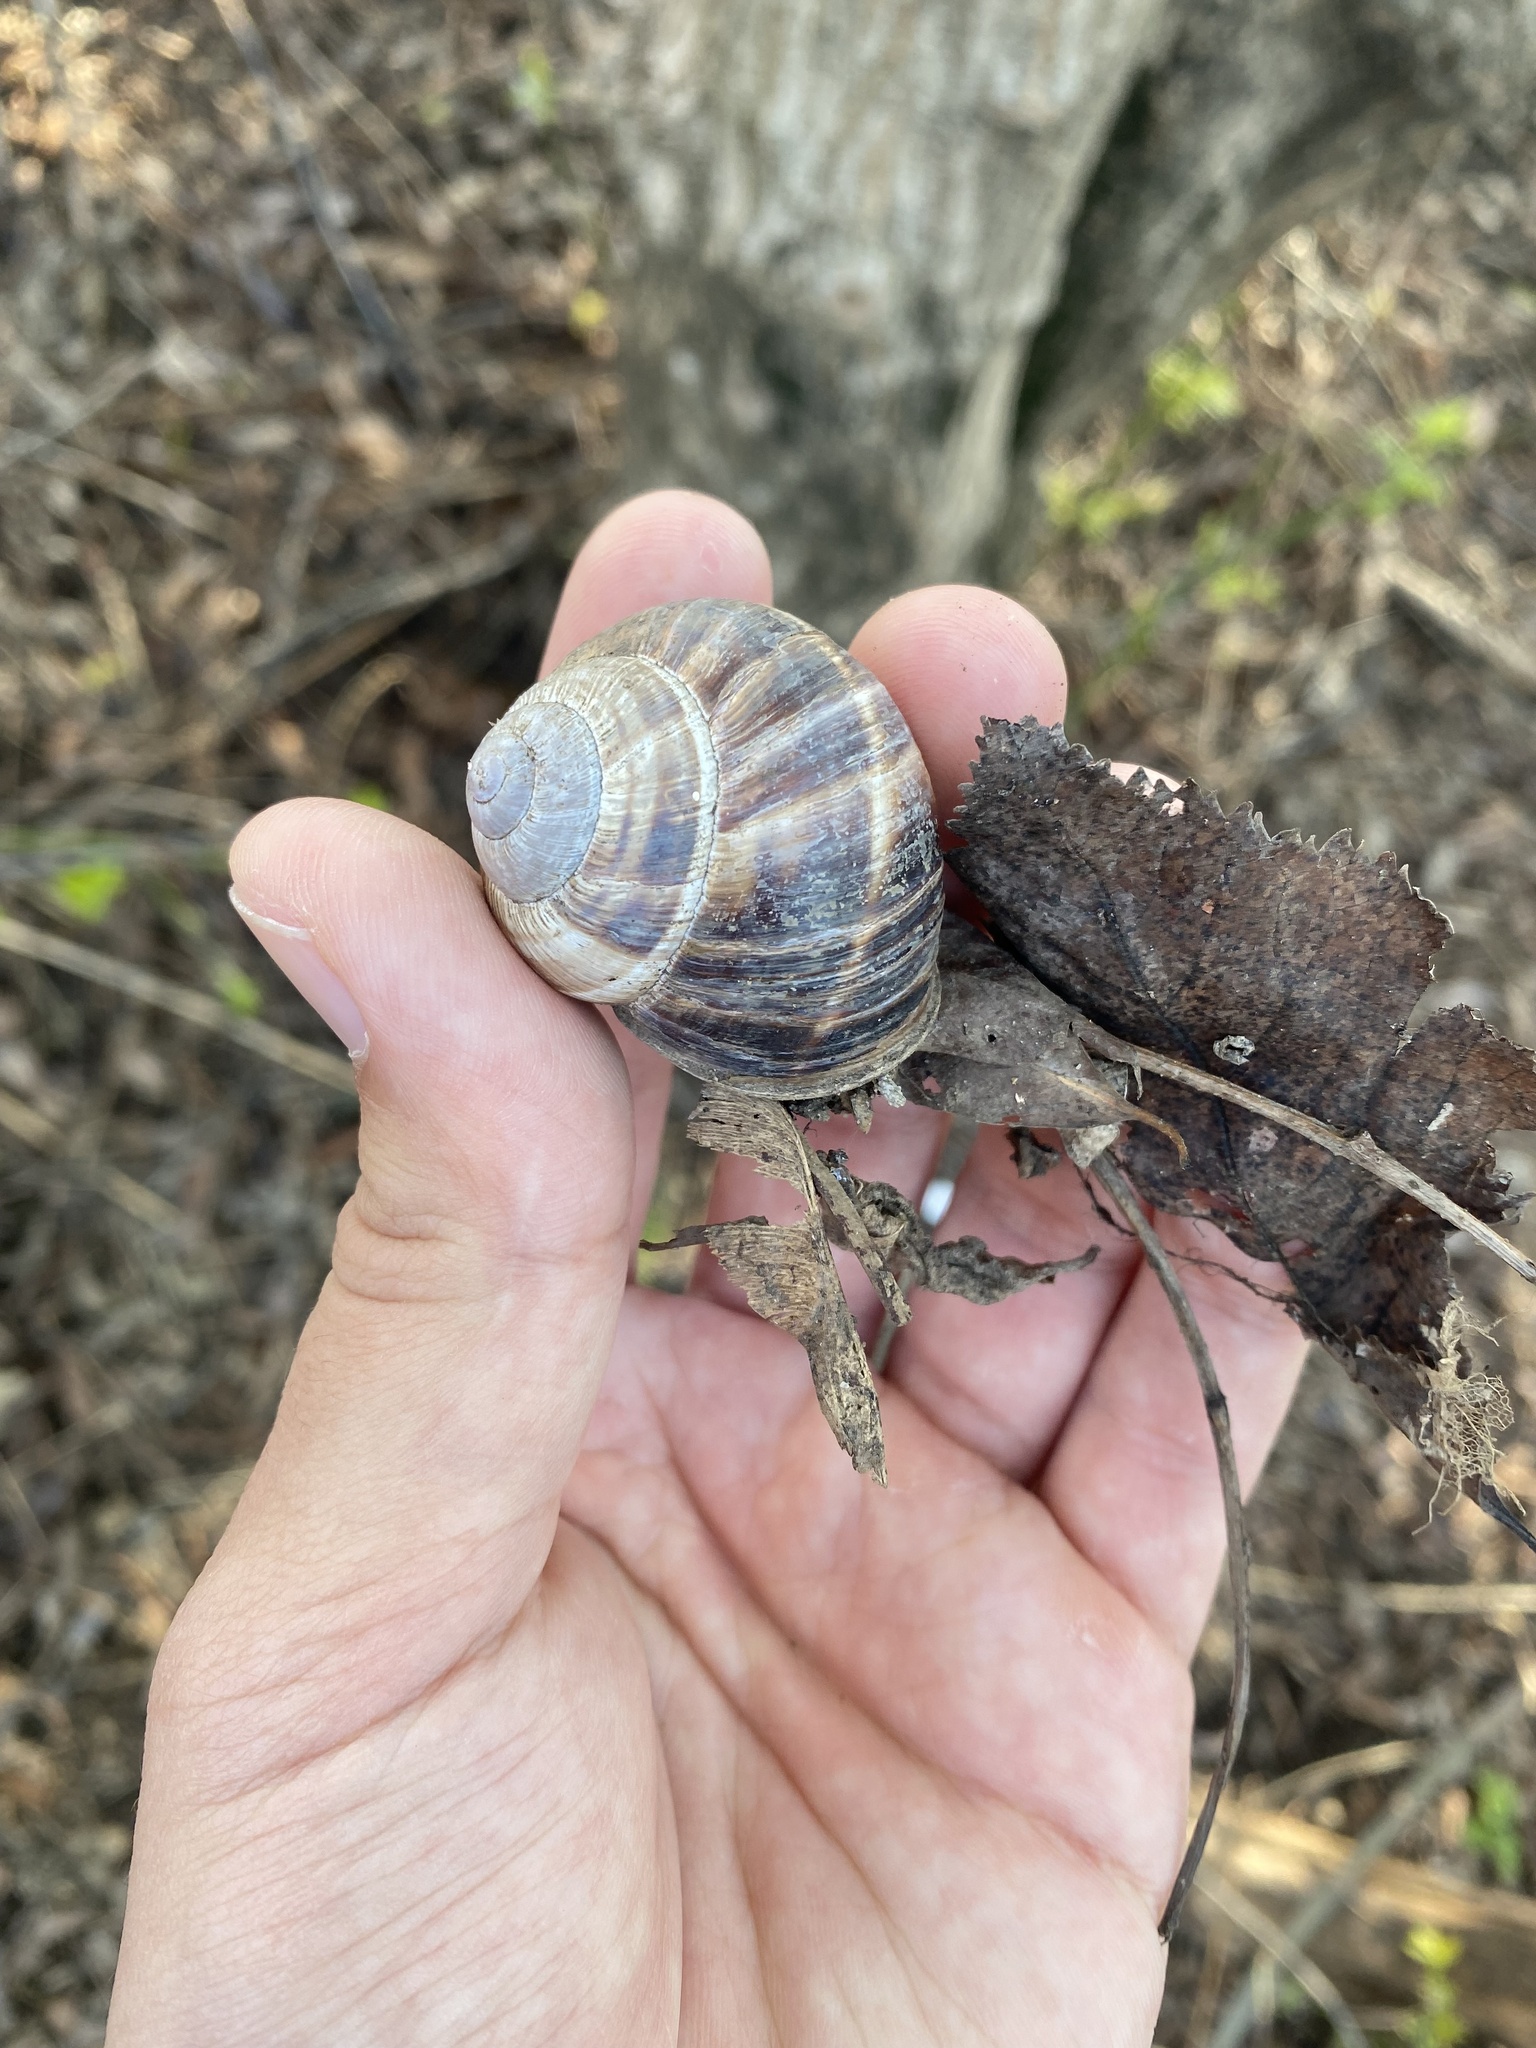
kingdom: Animalia
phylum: Mollusca
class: Gastropoda
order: Stylommatophora
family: Helicidae
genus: Helix
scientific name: Helix lucorum
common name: Turkish snail
